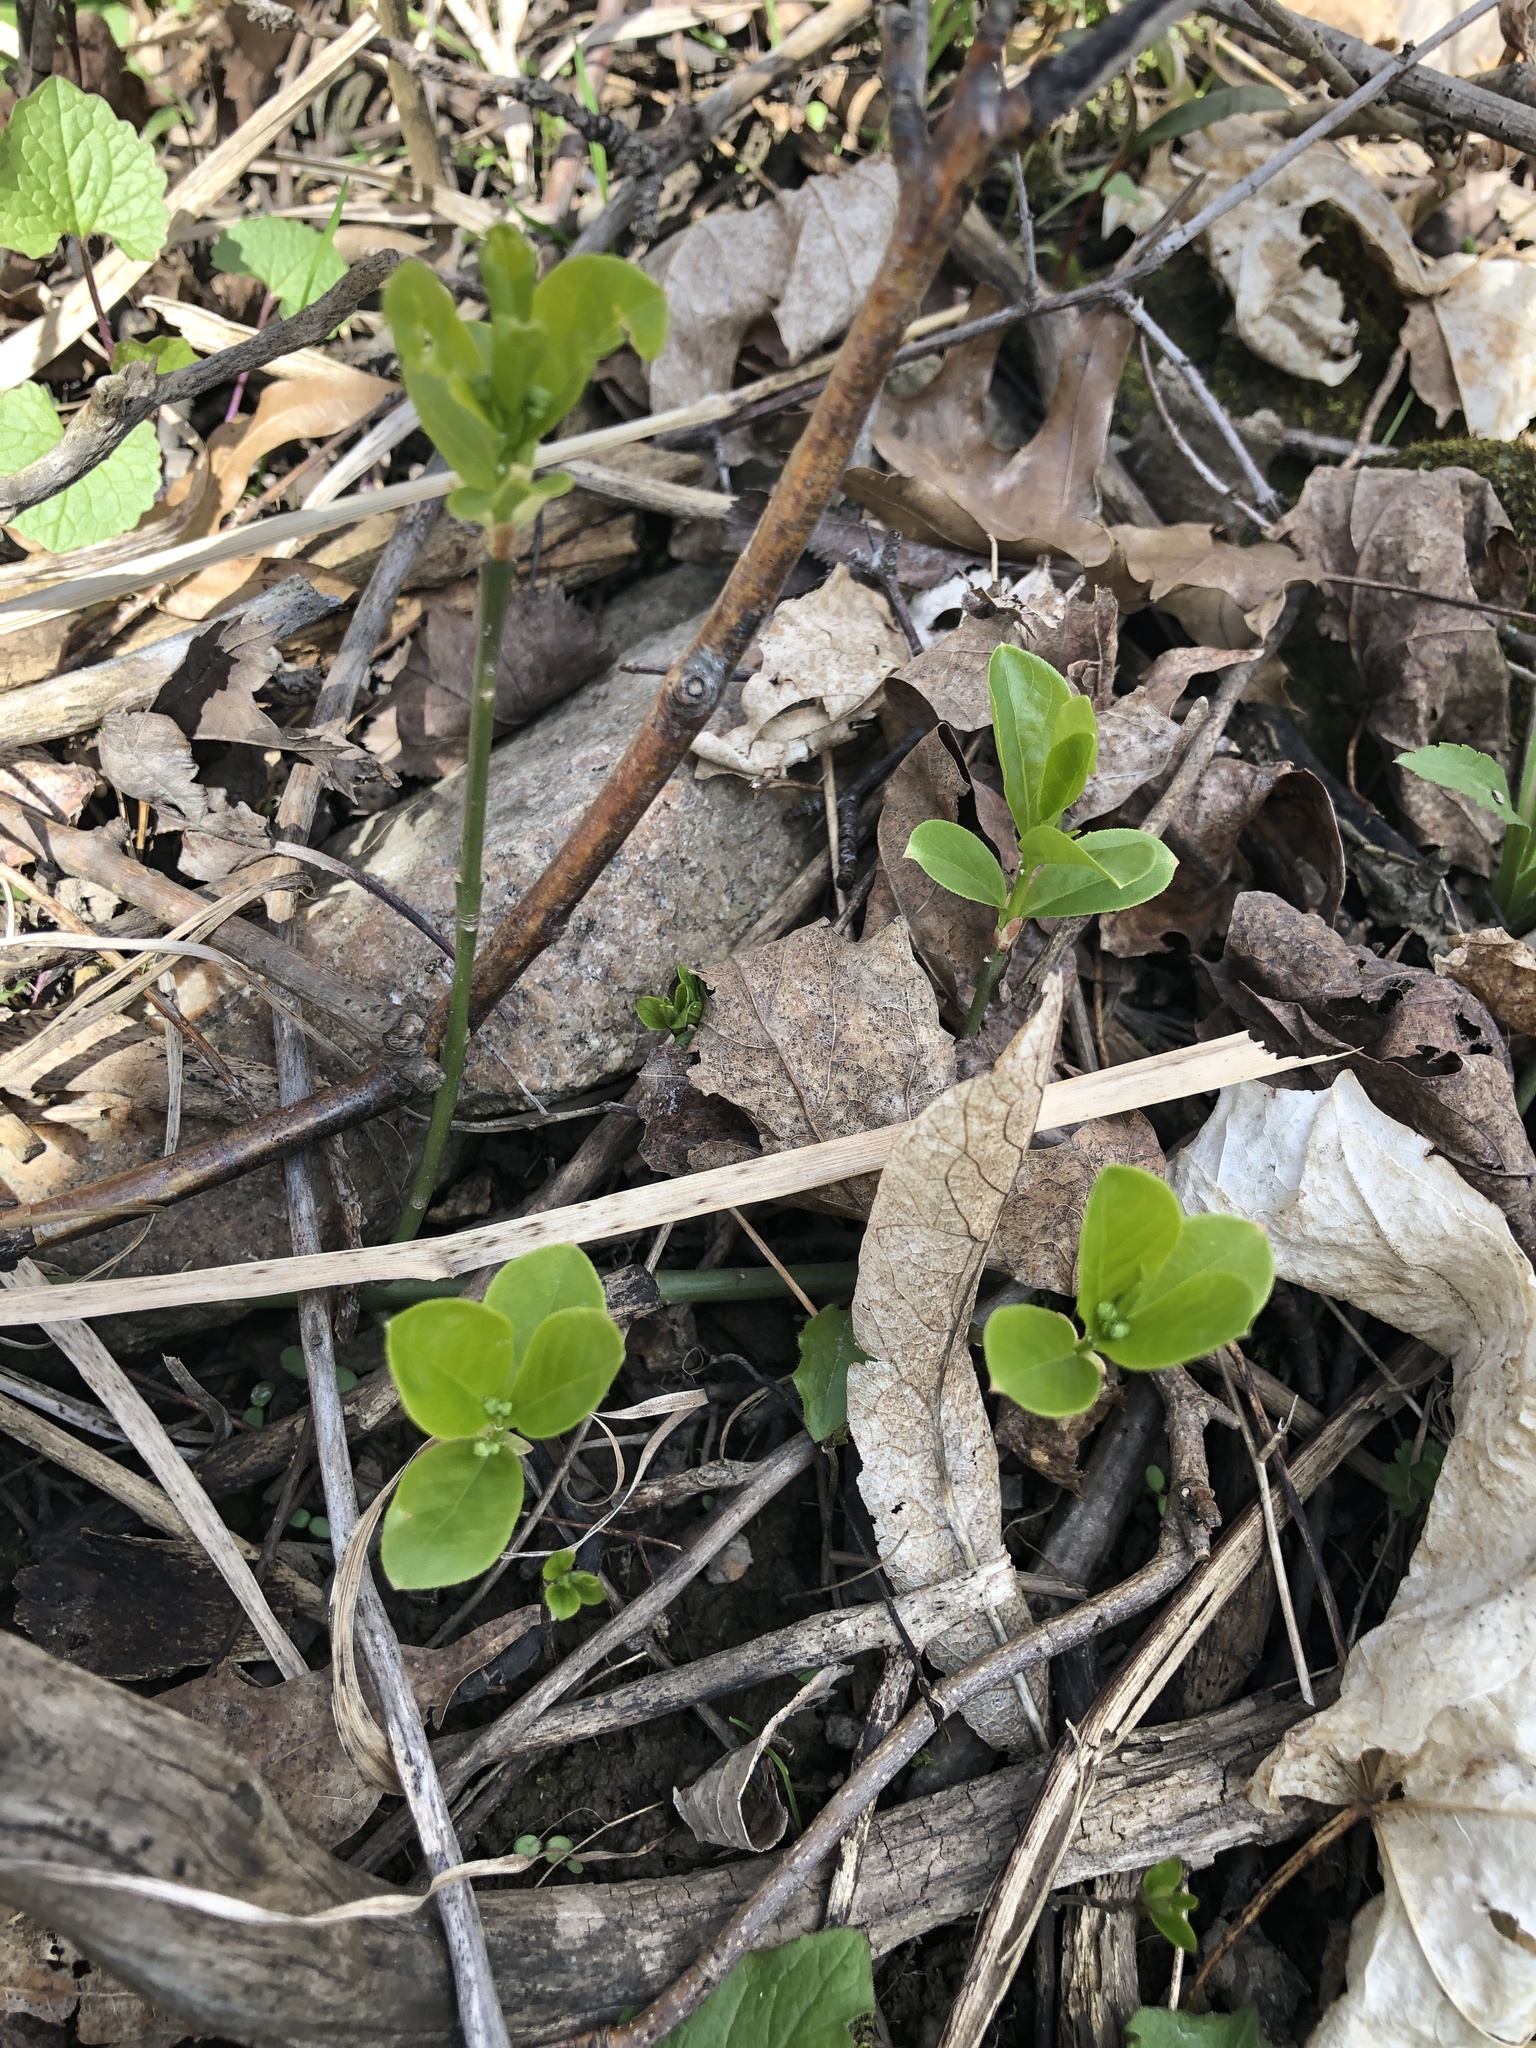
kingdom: Plantae
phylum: Tracheophyta
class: Magnoliopsida
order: Celastrales
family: Celastraceae
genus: Euonymus
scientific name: Euonymus obovatus
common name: Running strawberry-bush
